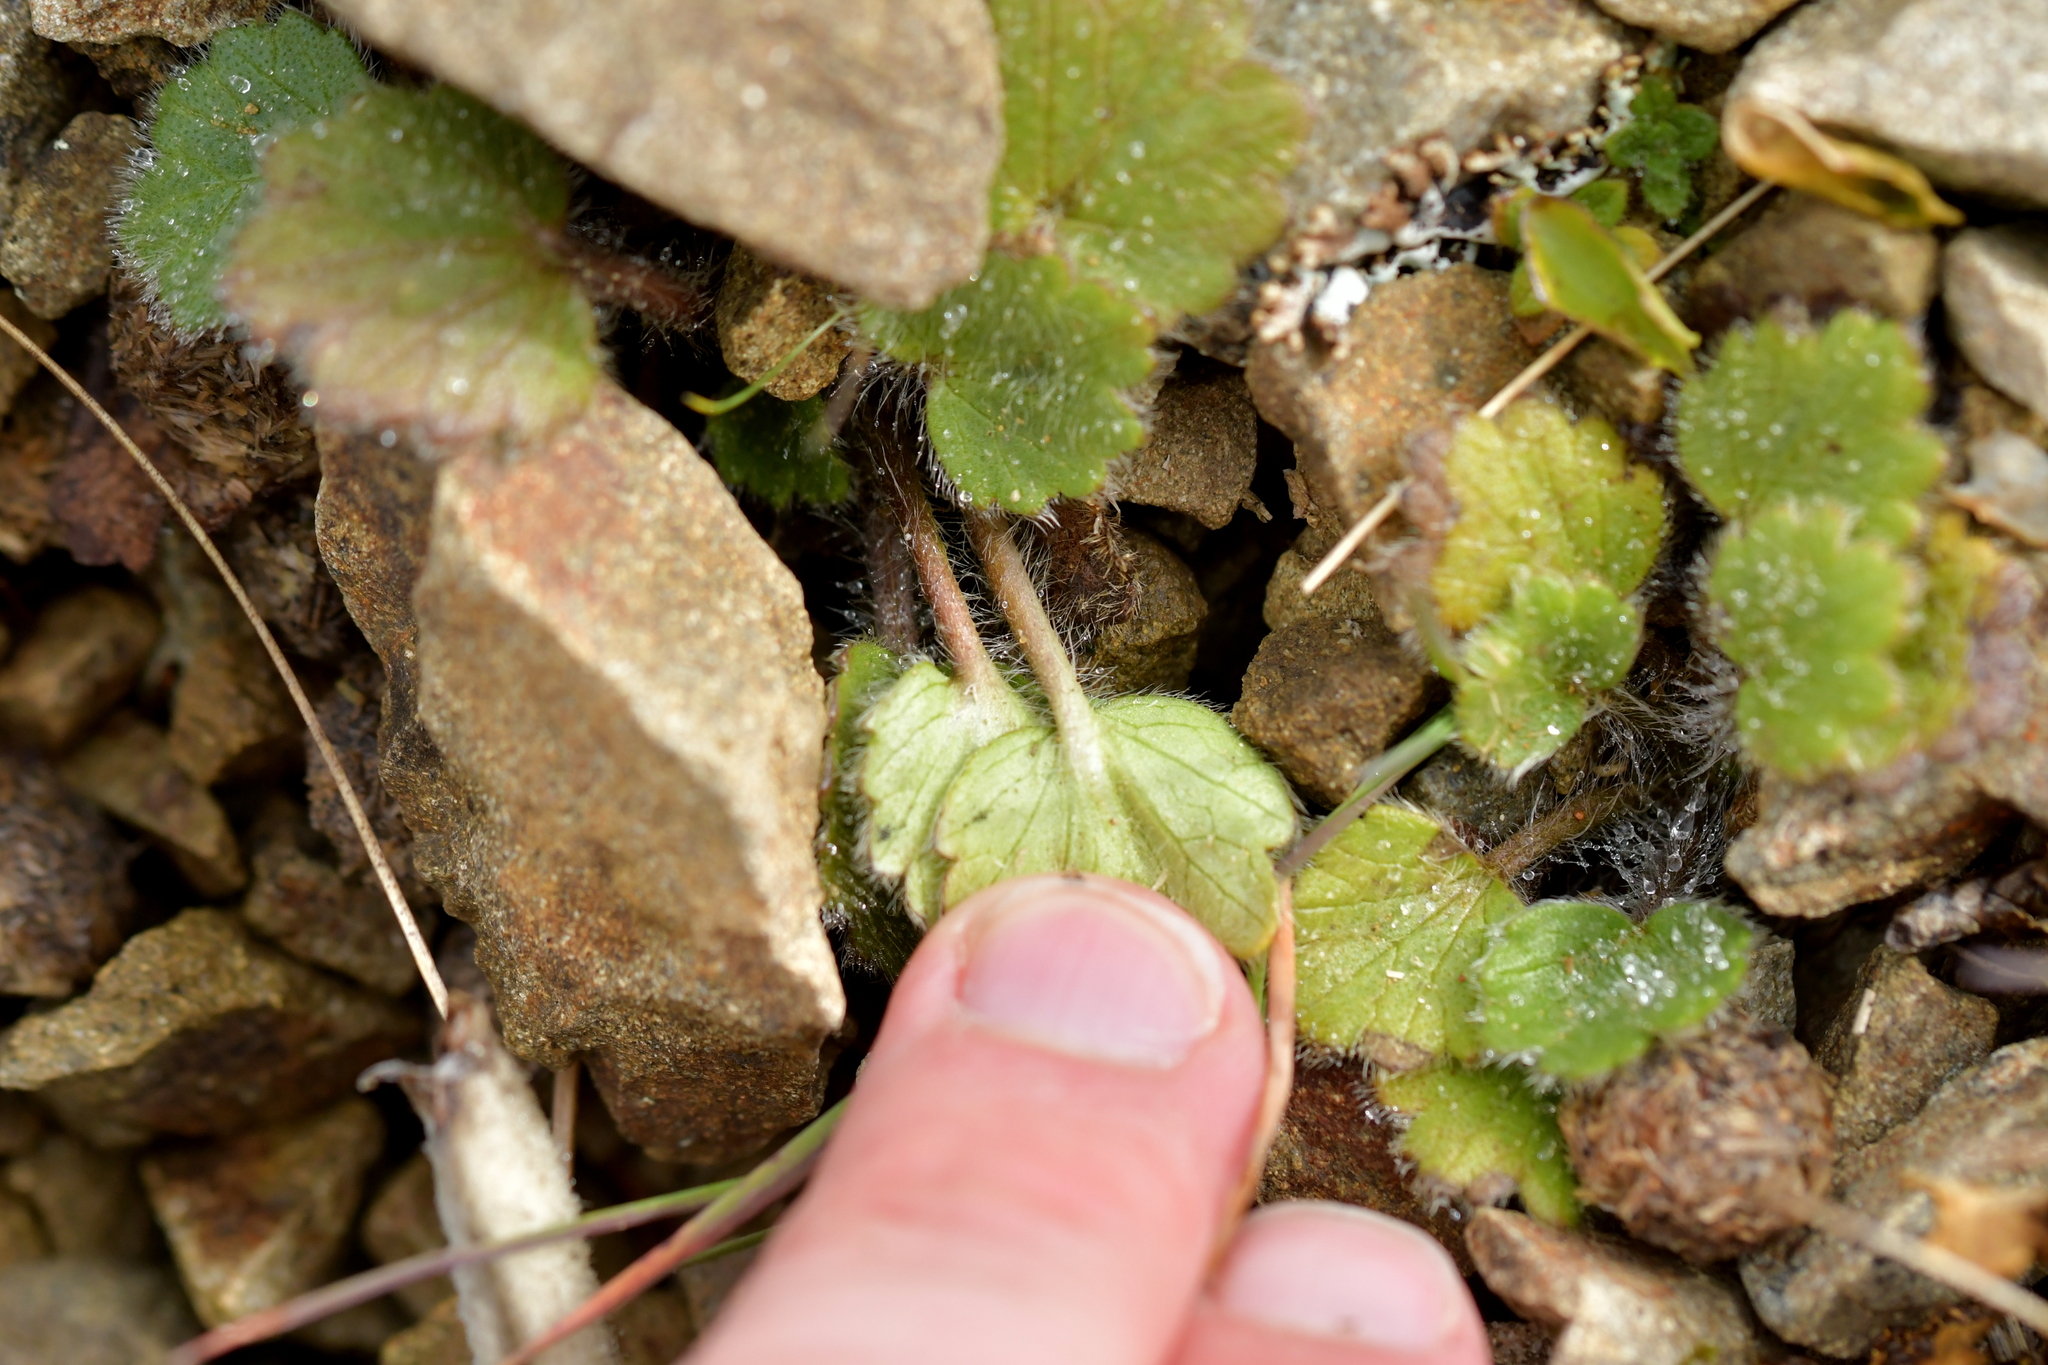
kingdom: Plantae
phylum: Tracheophyta
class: Magnoliopsida
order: Ranunculales
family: Ranunculaceae
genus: Ranunculus
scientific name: Ranunculus multiscapus
